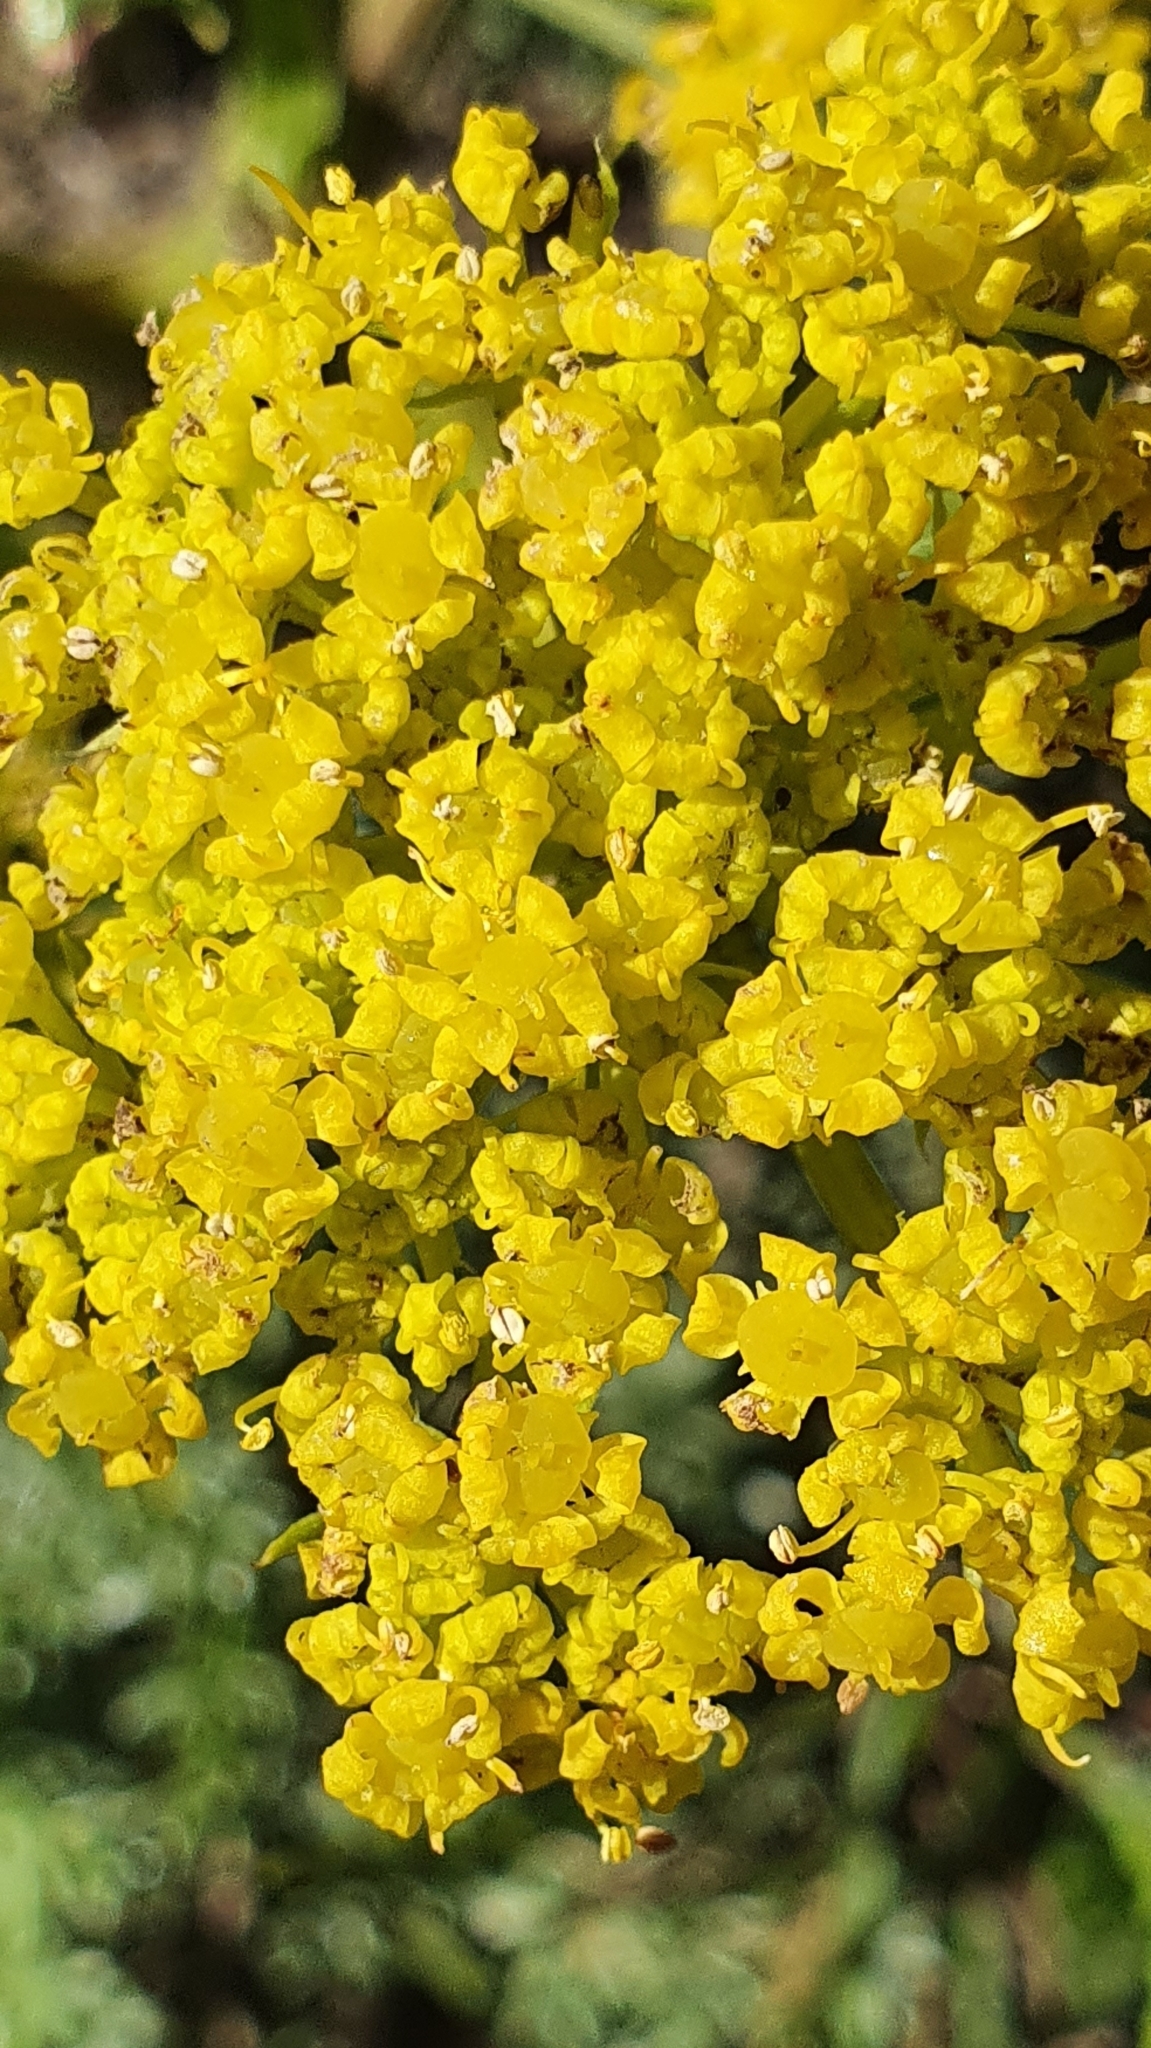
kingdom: Plantae
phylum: Tracheophyta
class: Magnoliopsida
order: Apiales
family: Apiaceae
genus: Thapsia
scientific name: Thapsia thapsioides
